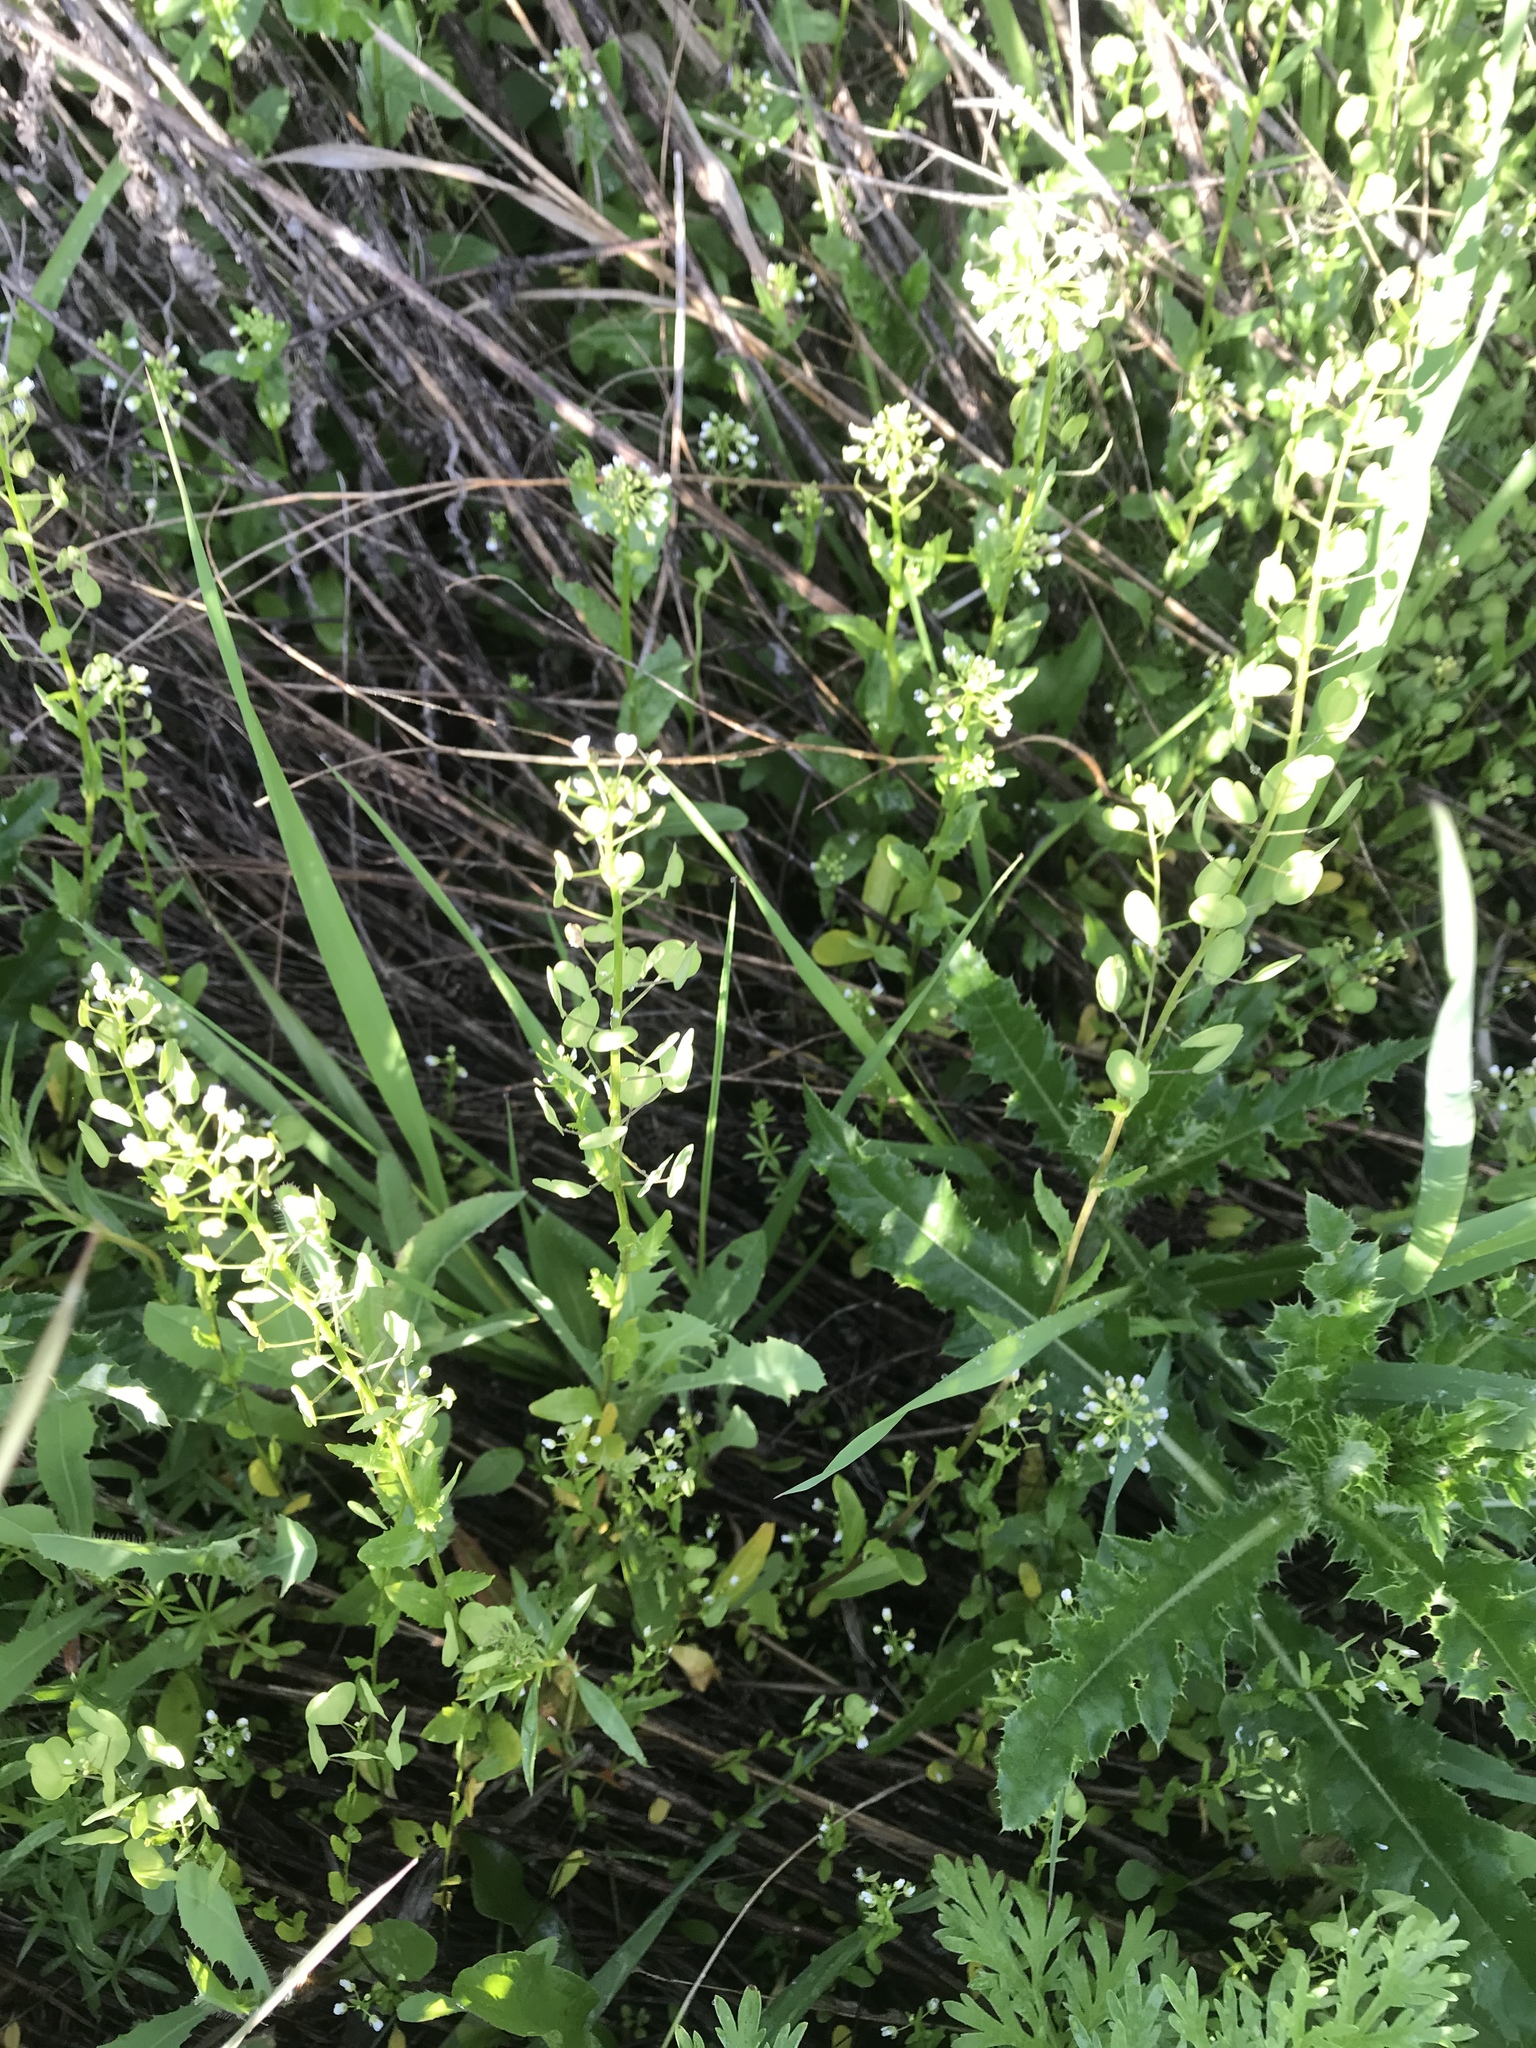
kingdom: Plantae
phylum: Tracheophyta
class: Magnoliopsida
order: Brassicales
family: Brassicaceae
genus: Thlaspi
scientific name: Thlaspi arvense
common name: Field pennycress
